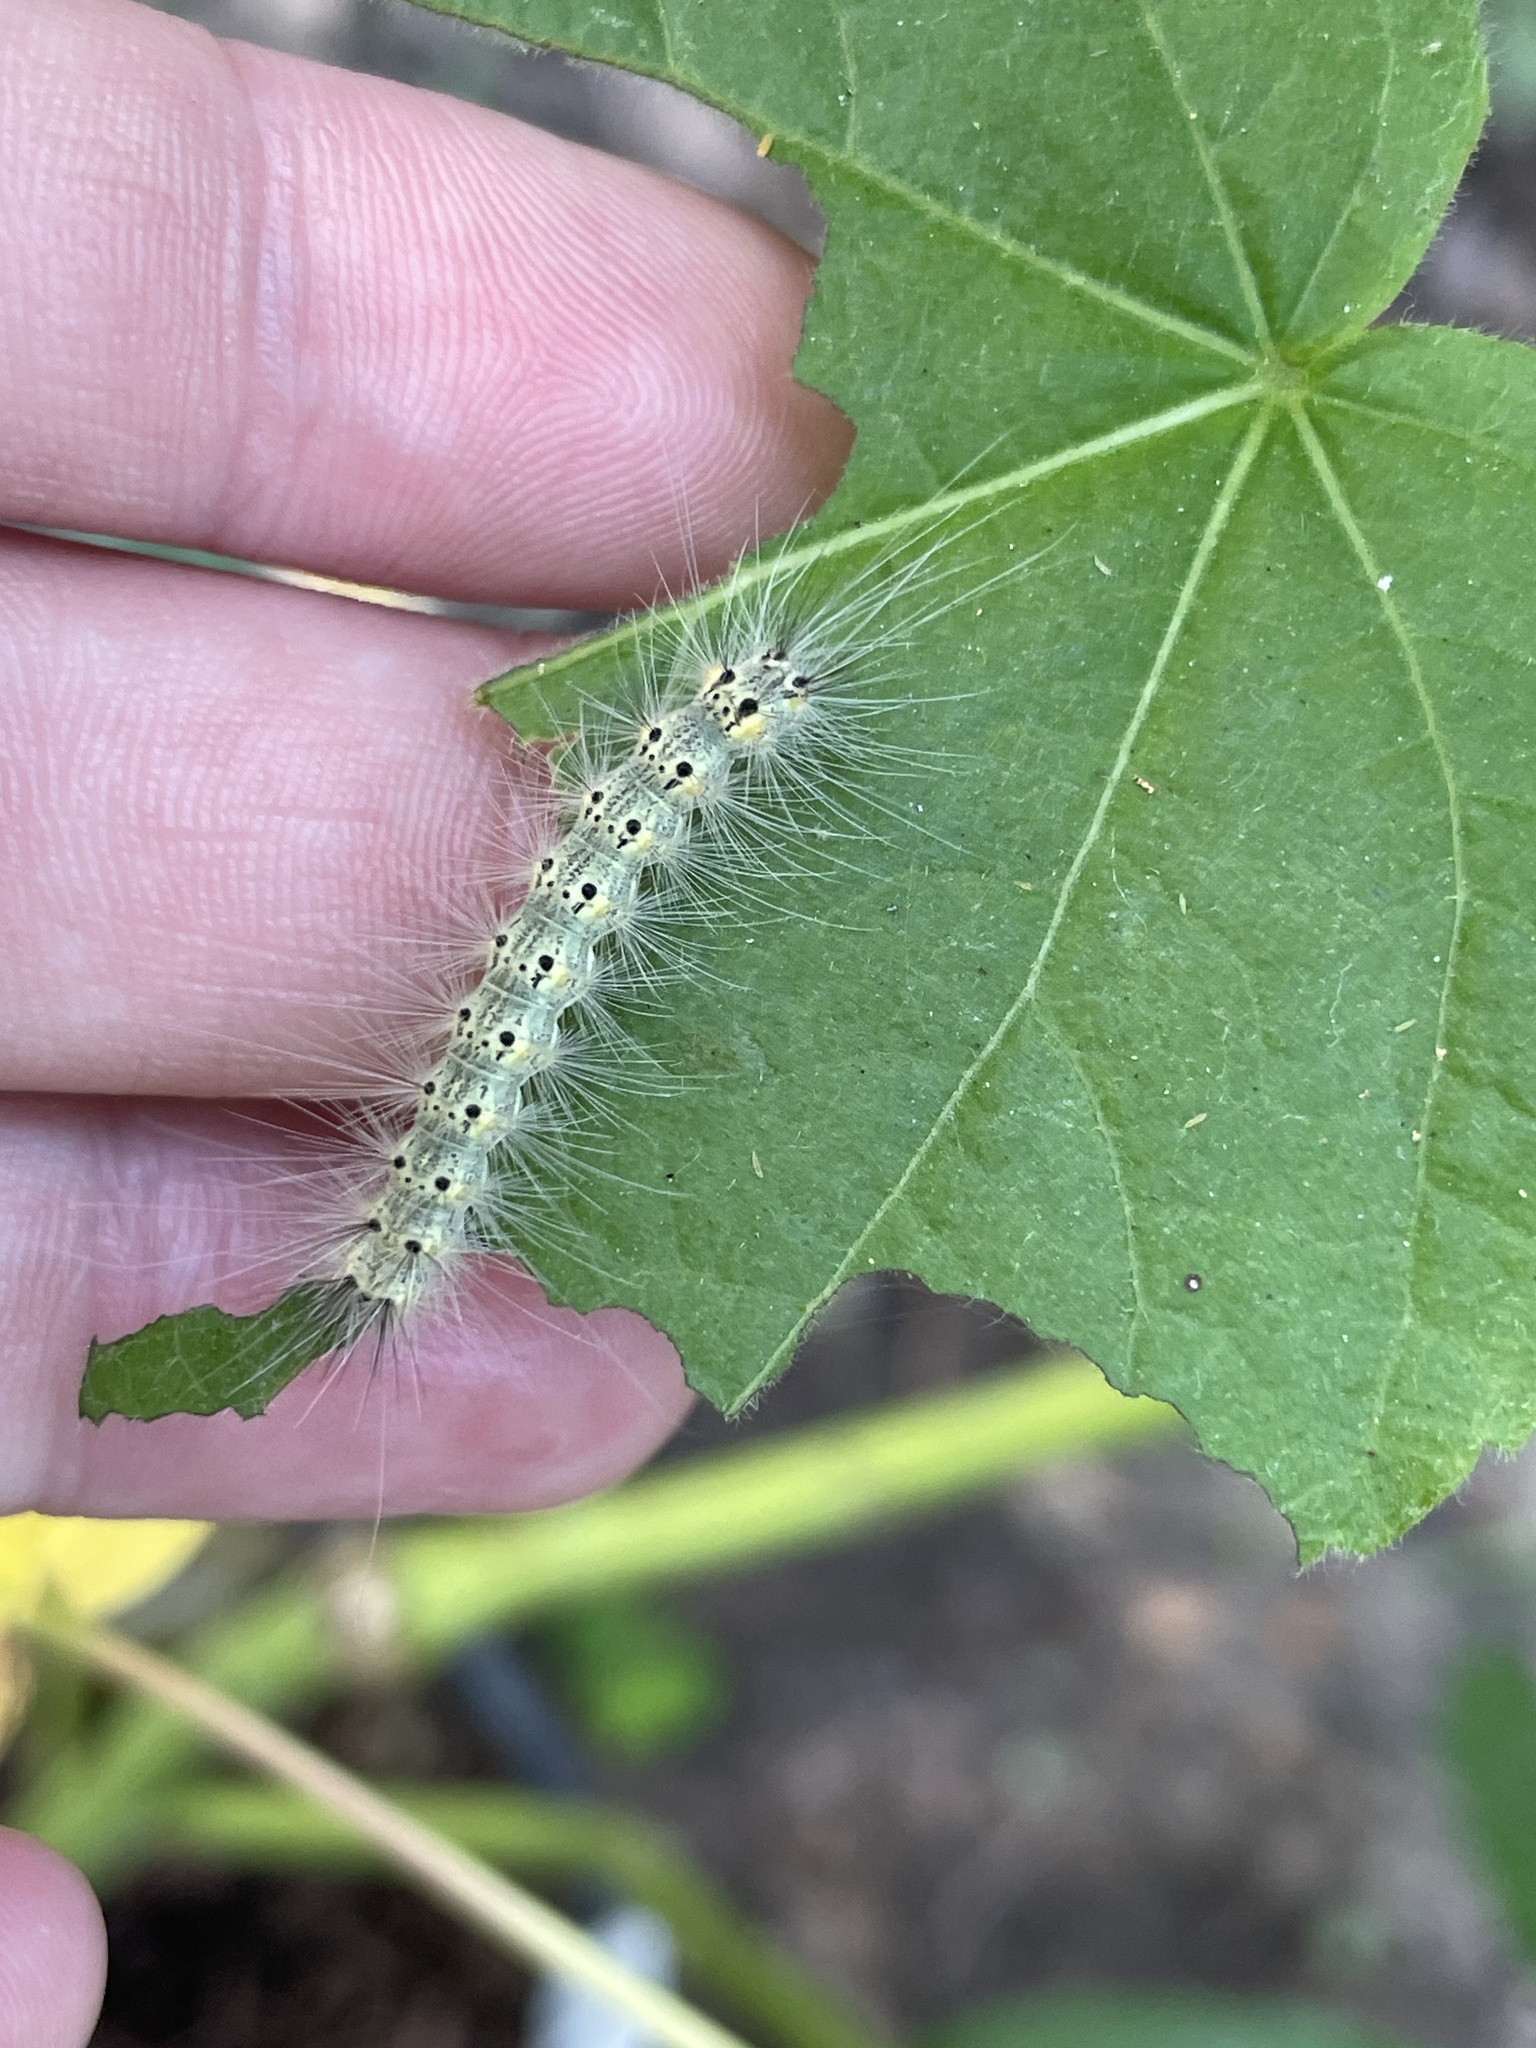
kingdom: Animalia
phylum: Arthropoda
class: Insecta
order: Lepidoptera
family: Erebidae
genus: Hyphantria
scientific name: Hyphantria cunea
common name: American white moth
